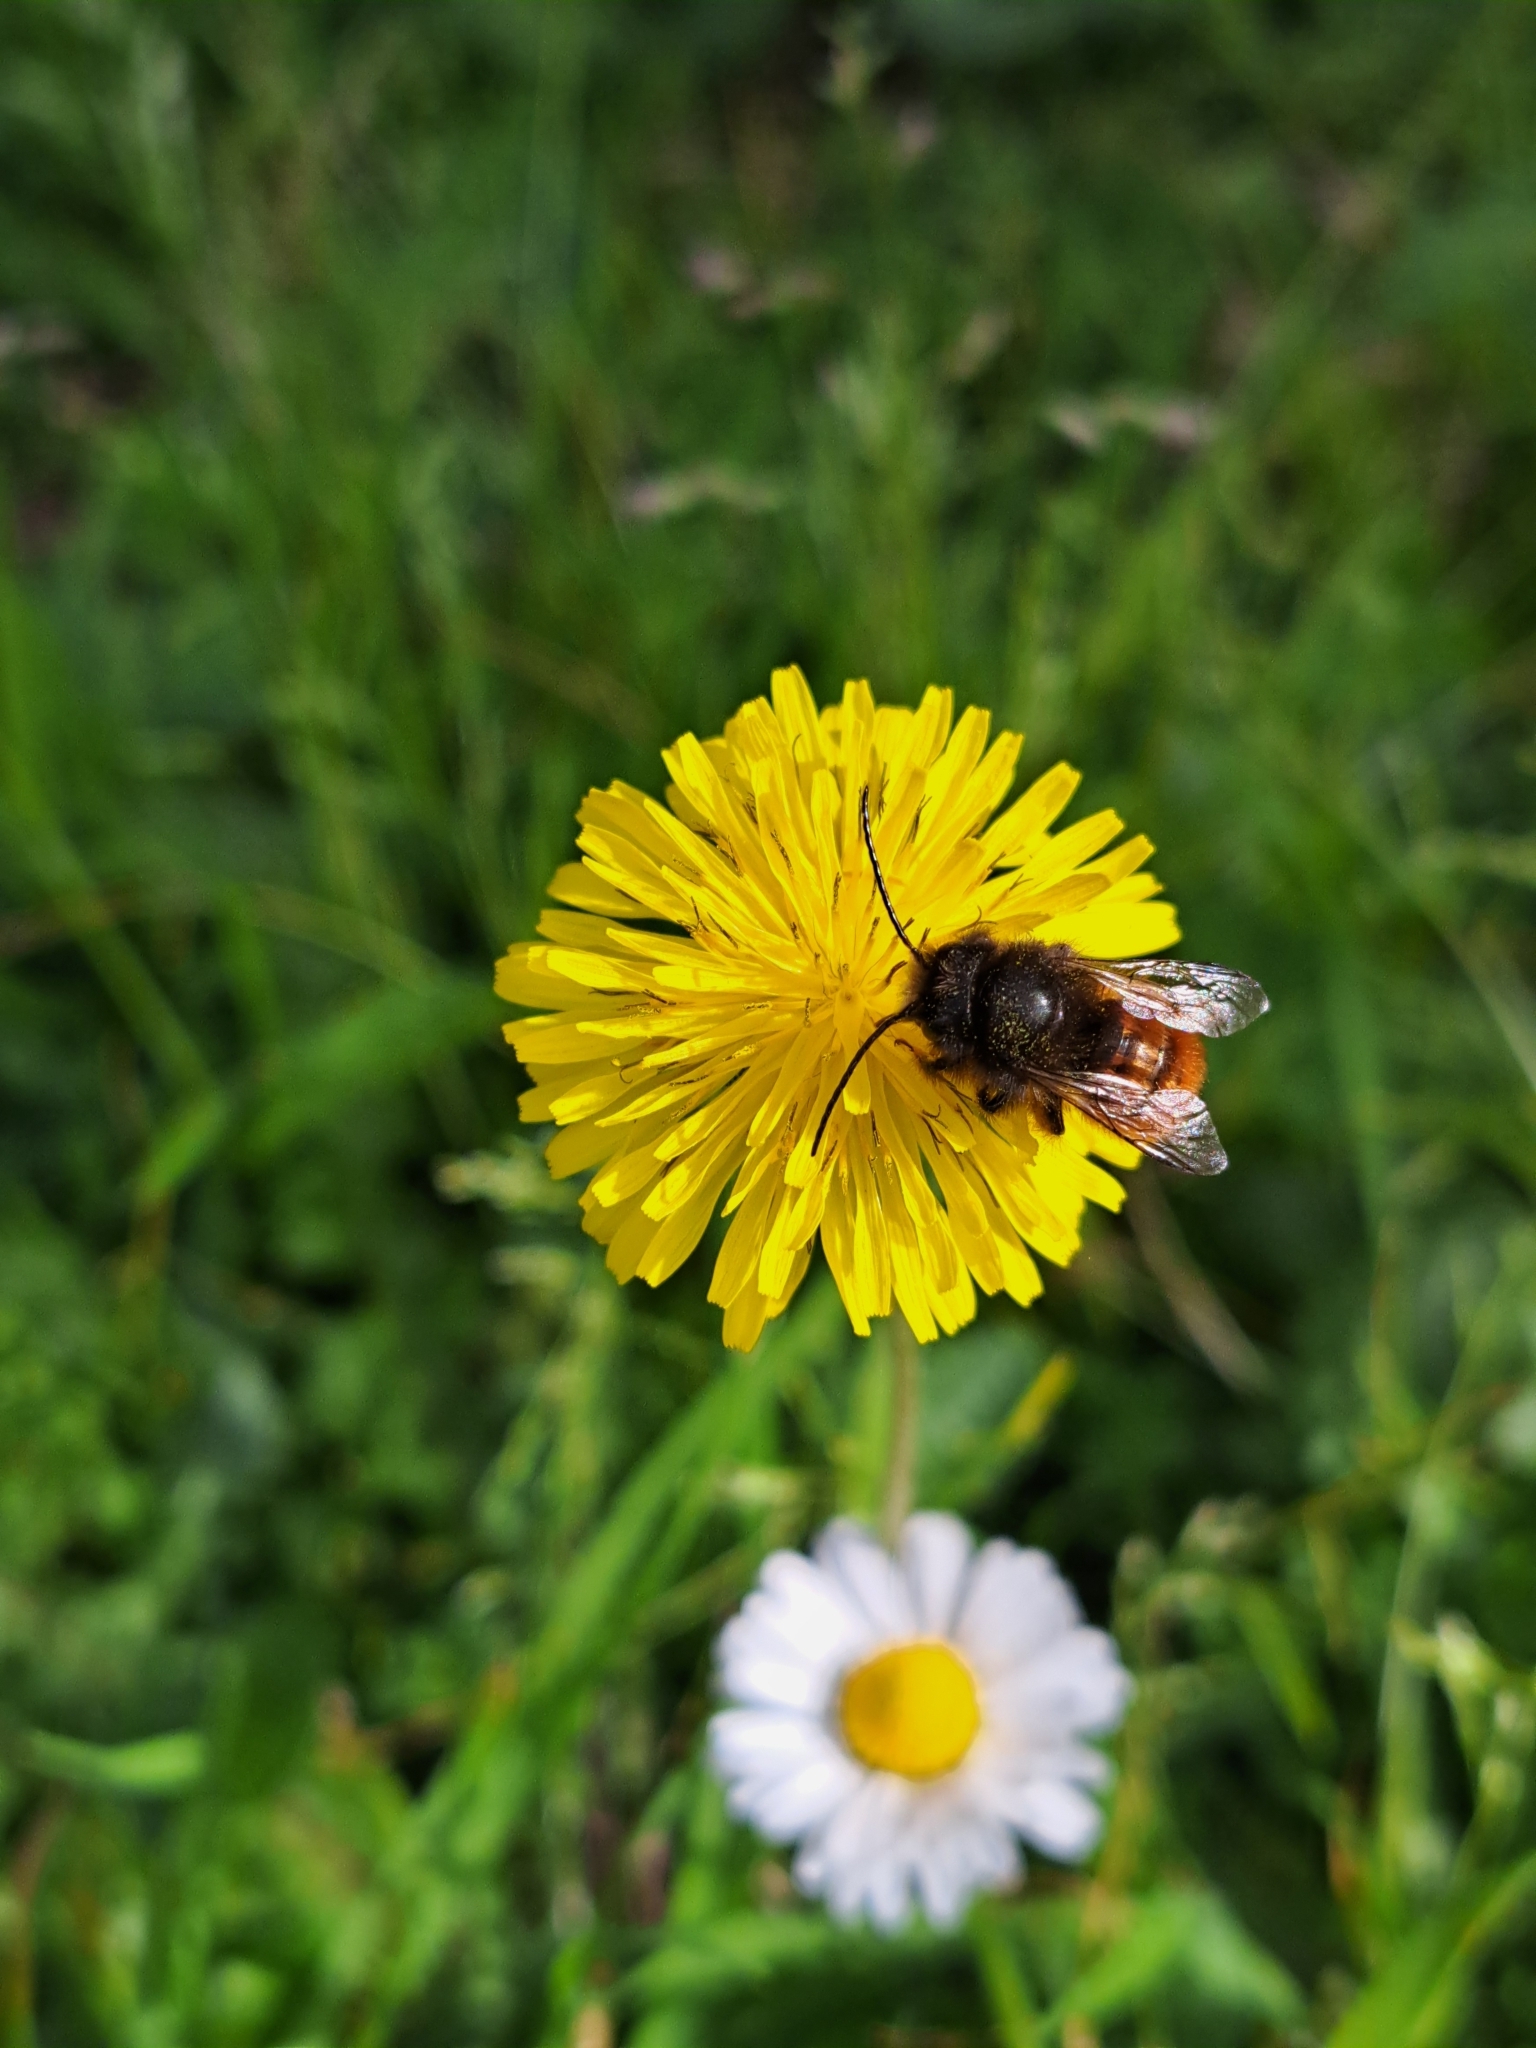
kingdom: Animalia
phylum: Arthropoda
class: Insecta
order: Hymenoptera
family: Megachilidae
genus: Osmia
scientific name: Osmia cornuta
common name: Mason bee
